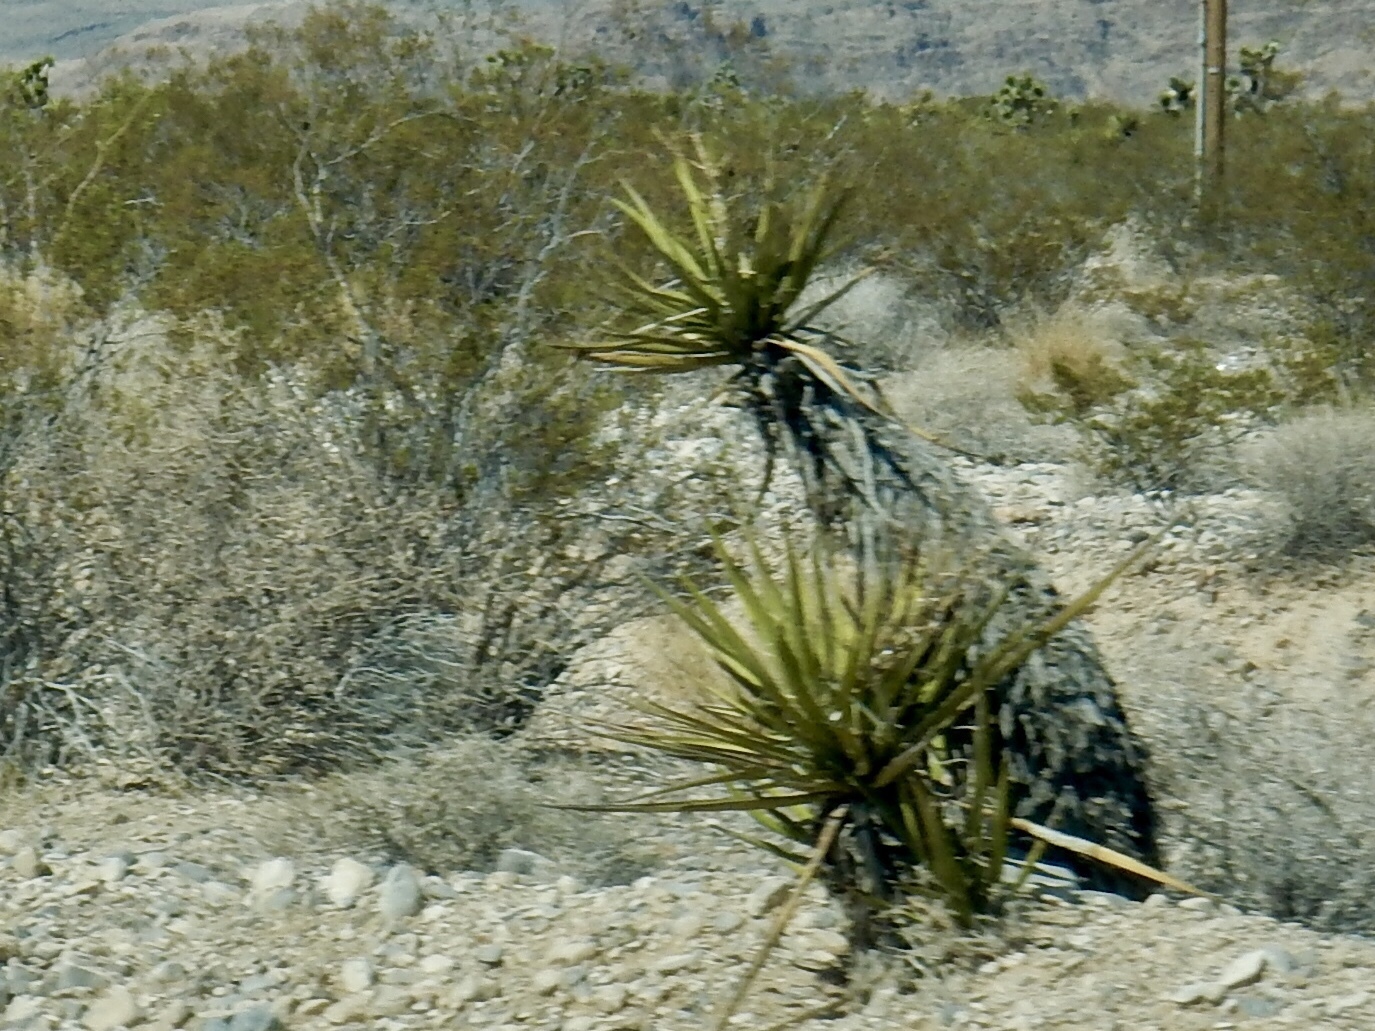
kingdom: Plantae
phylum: Tracheophyta
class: Liliopsida
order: Asparagales
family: Asparagaceae
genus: Yucca
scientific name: Yucca schidigera
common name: Mojave yucca
